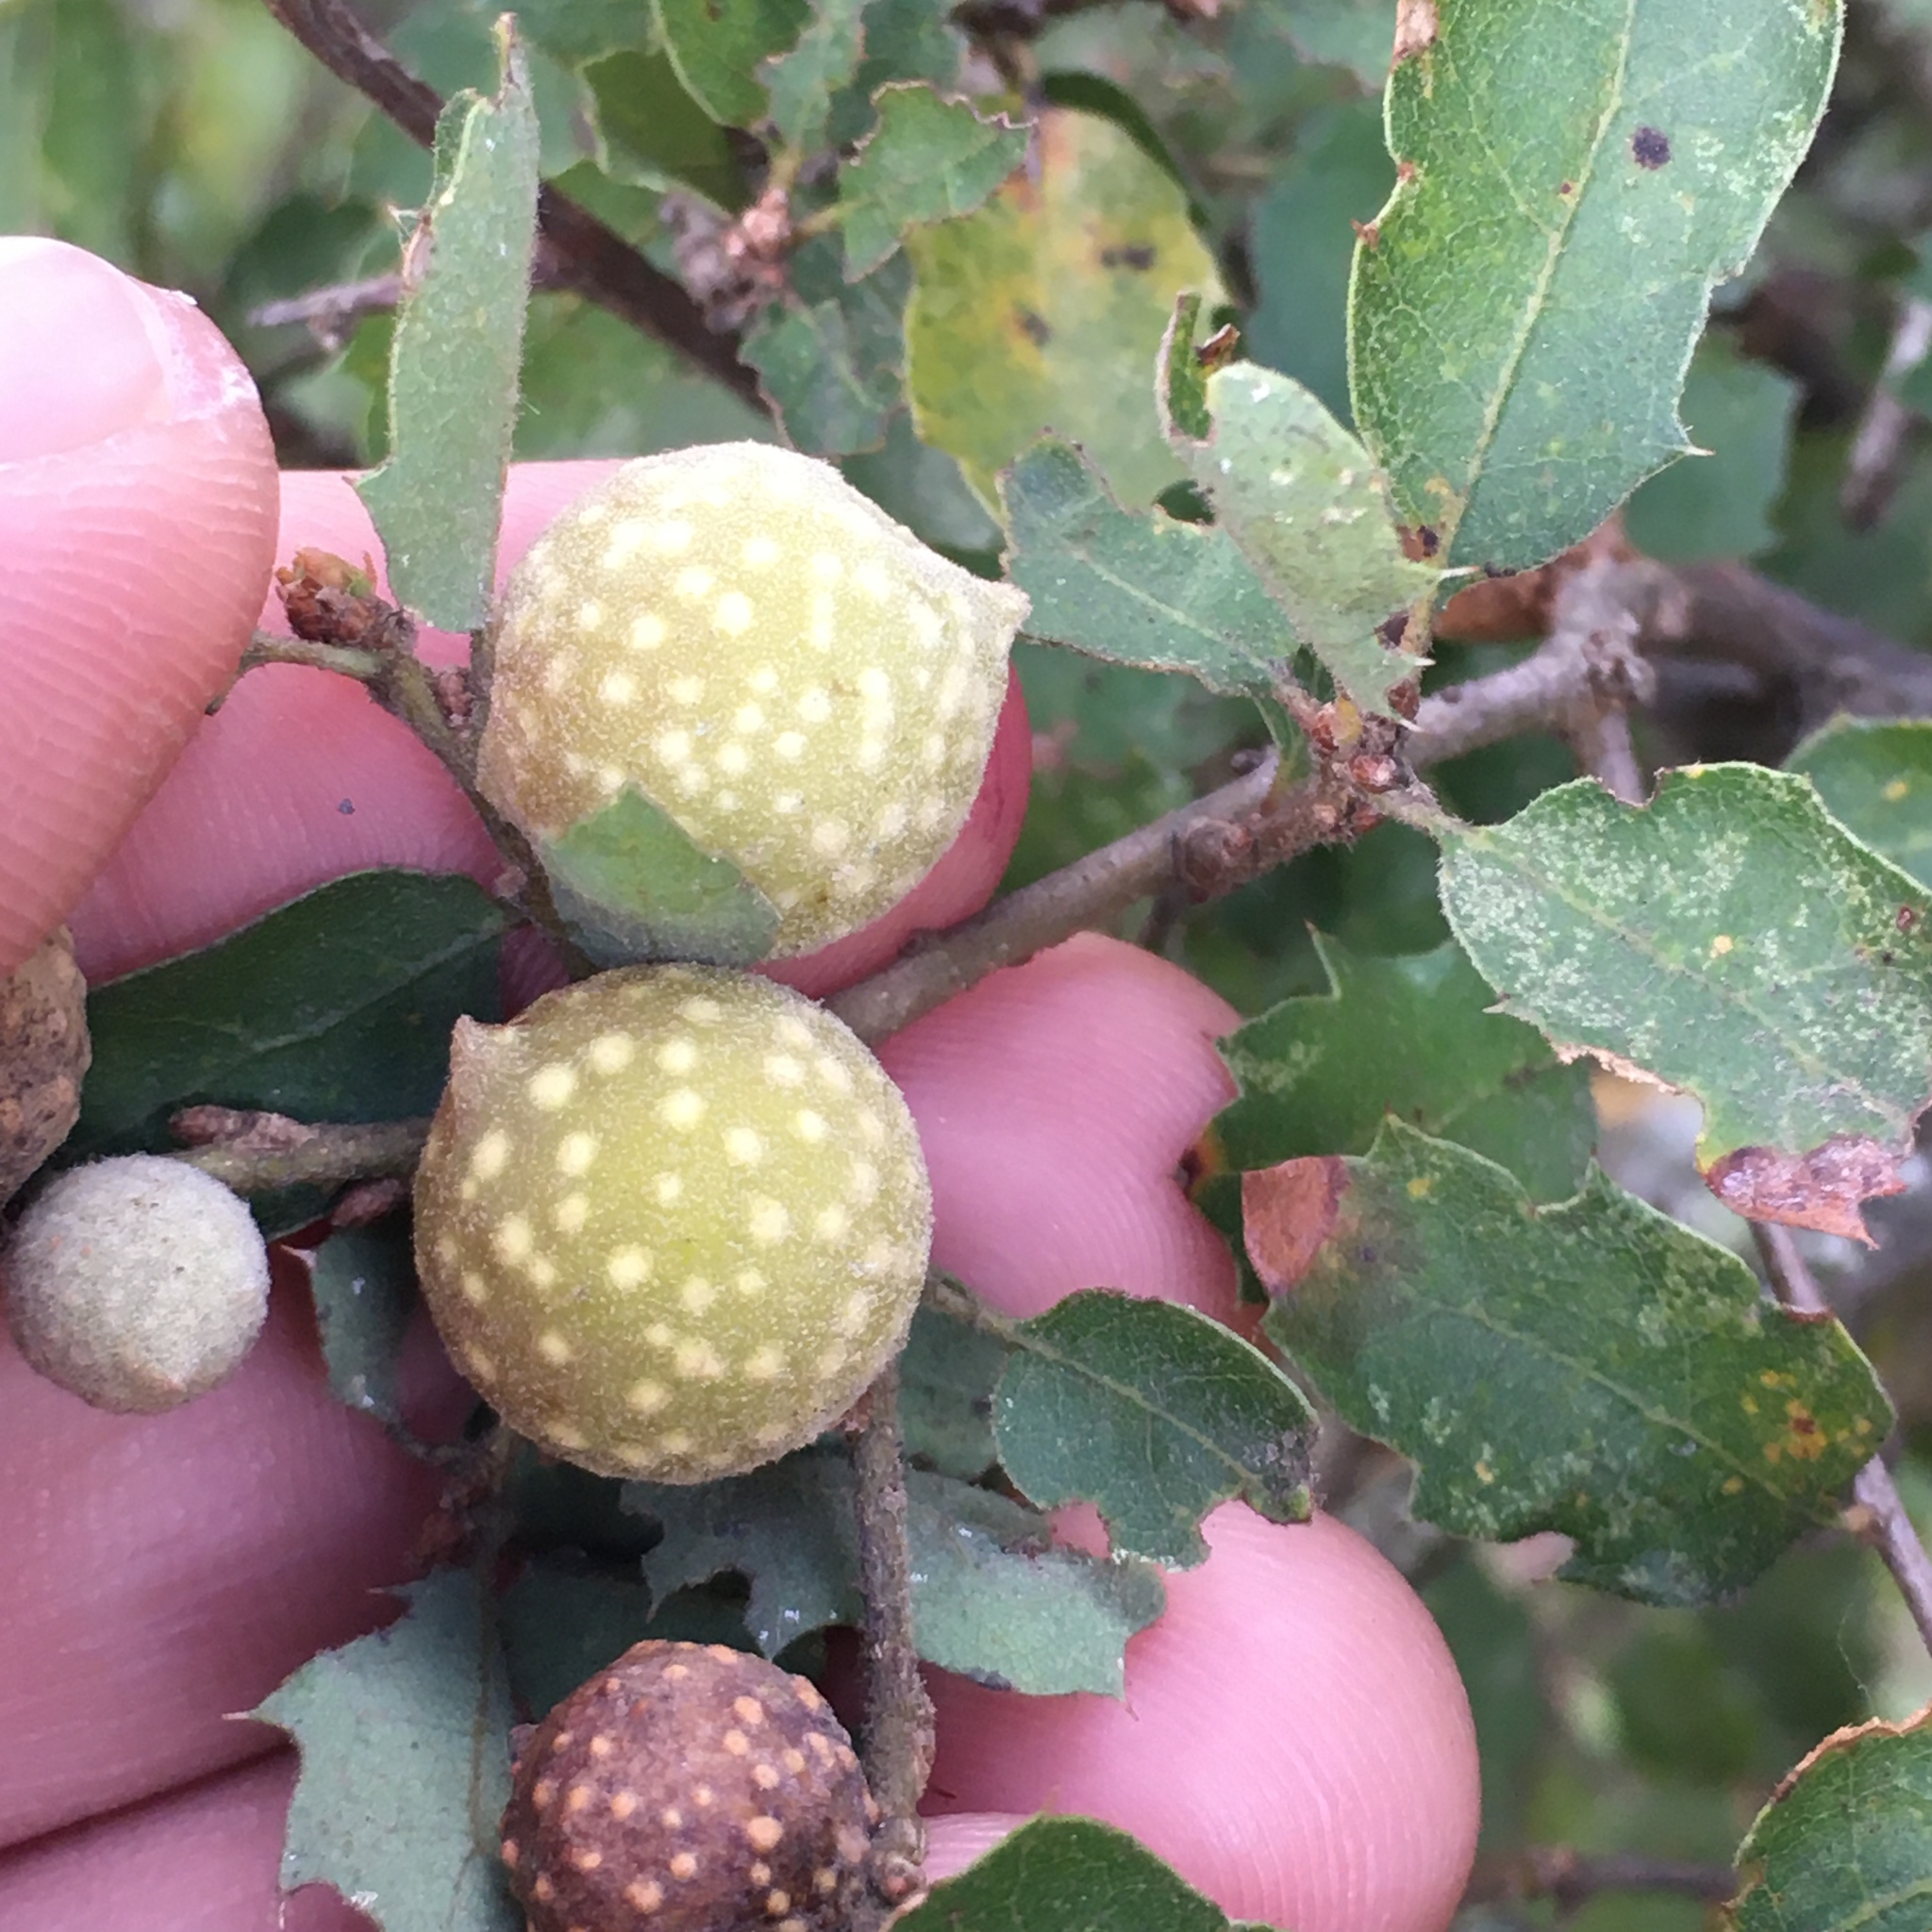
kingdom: Animalia
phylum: Arthropoda
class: Insecta
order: Hymenoptera
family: Cynipidae
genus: Burnettweldia
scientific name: Burnettweldia
